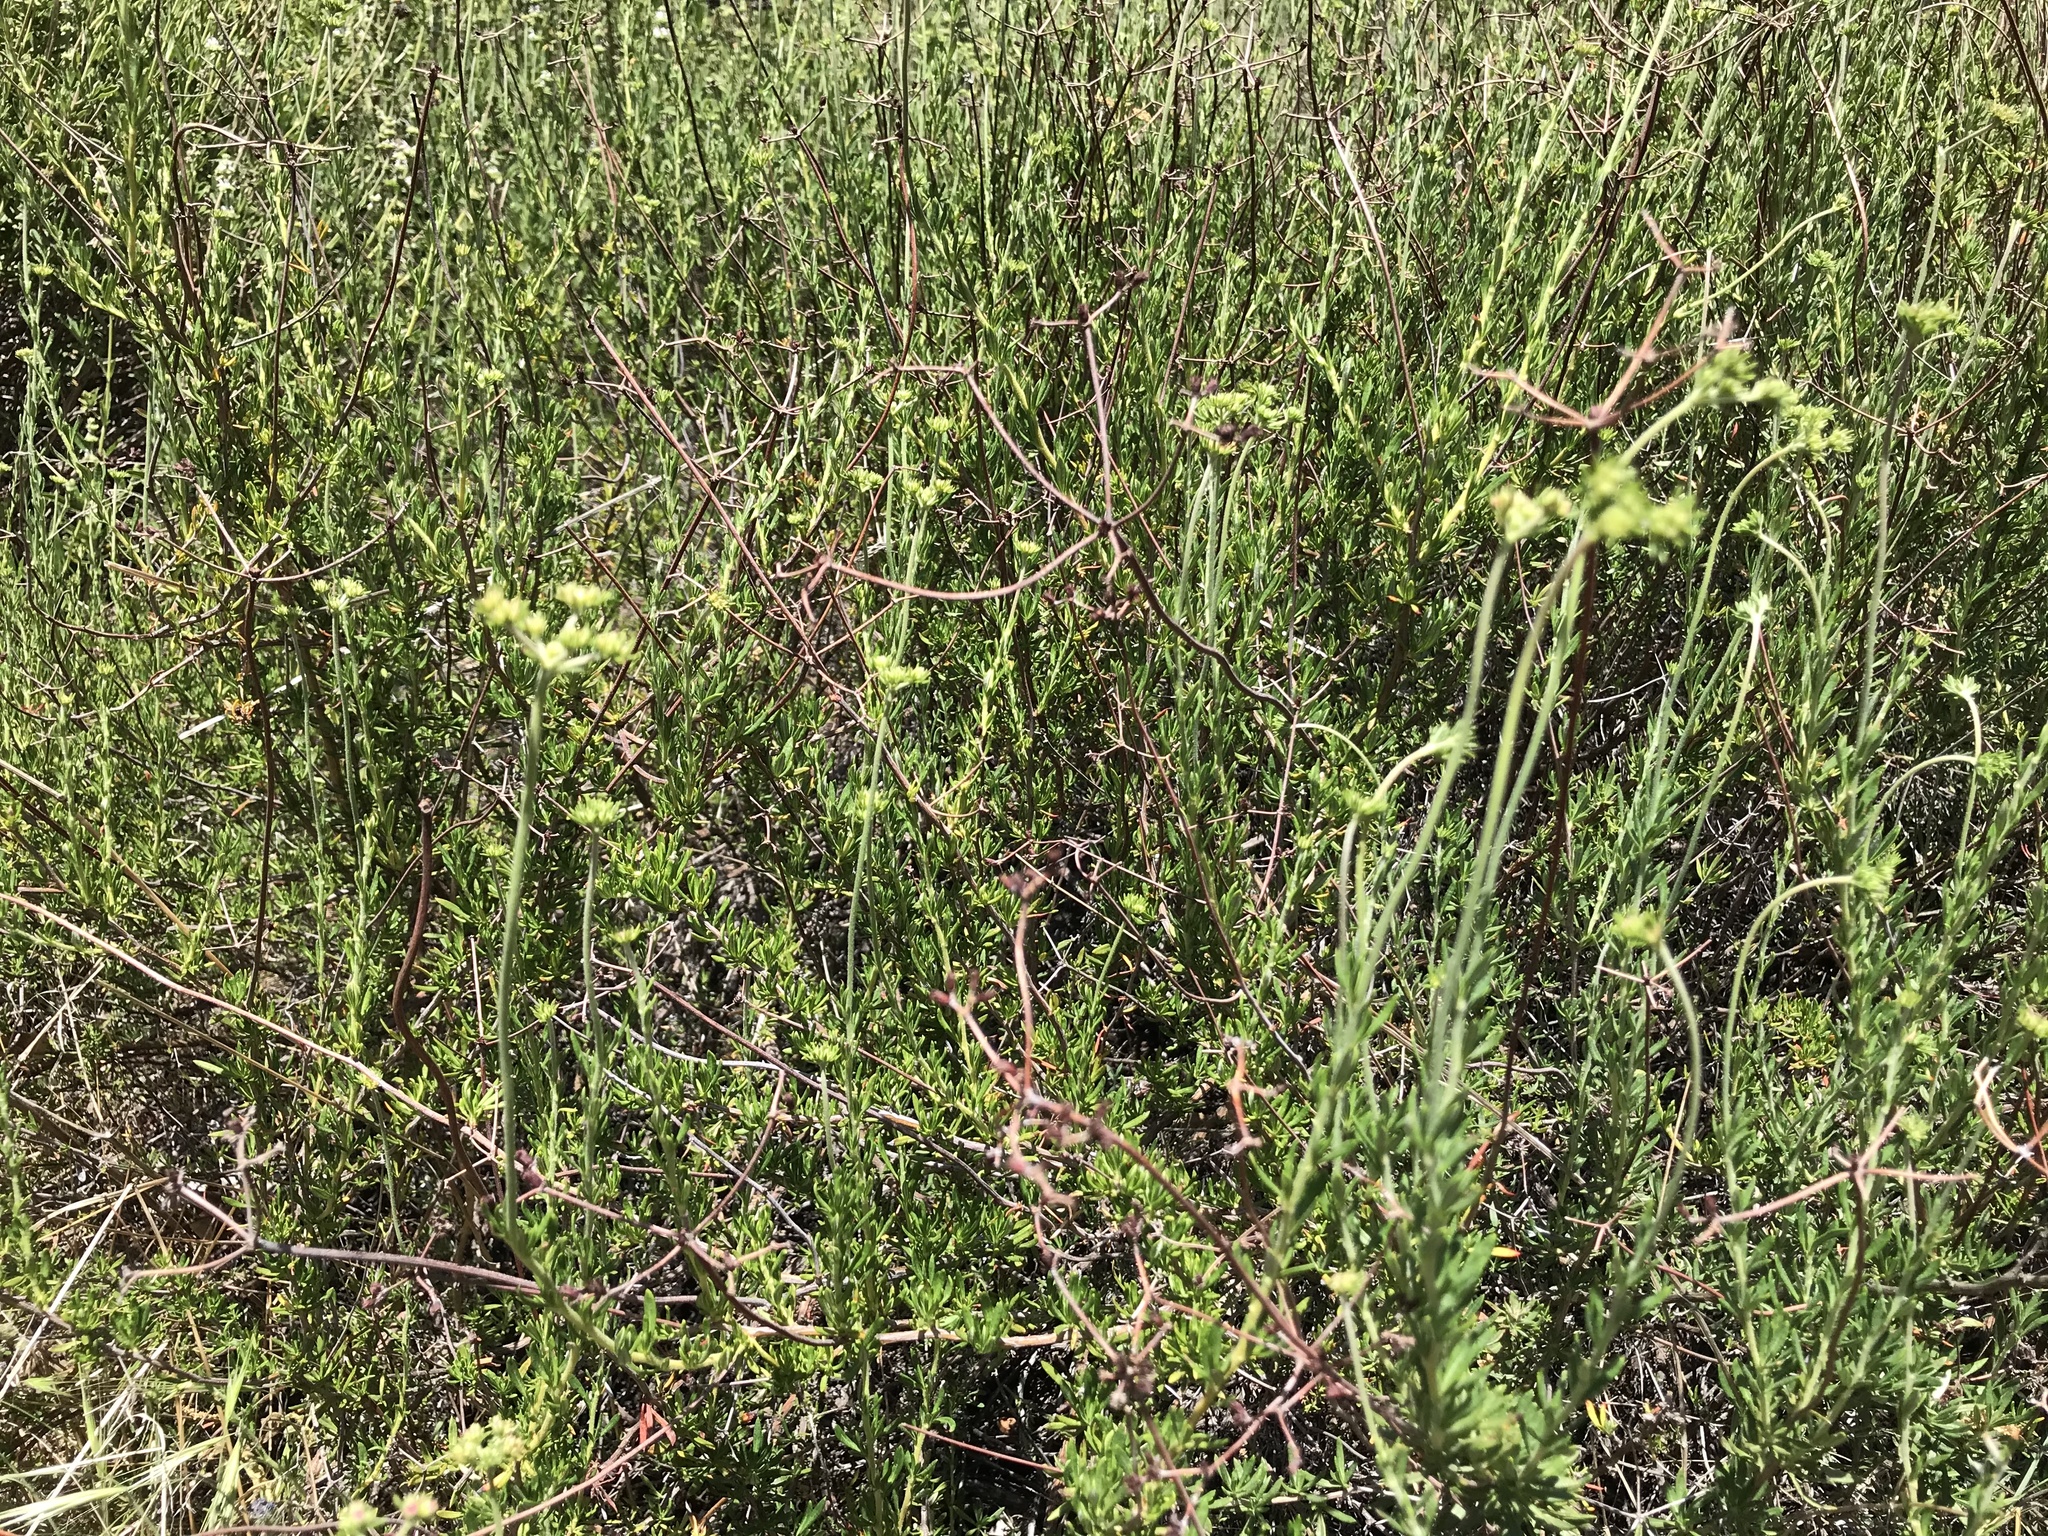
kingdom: Plantae
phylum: Tracheophyta
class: Magnoliopsida
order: Caryophyllales
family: Polygonaceae
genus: Eriogonum
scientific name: Eriogonum fasciculatum
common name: California wild buckwheat
